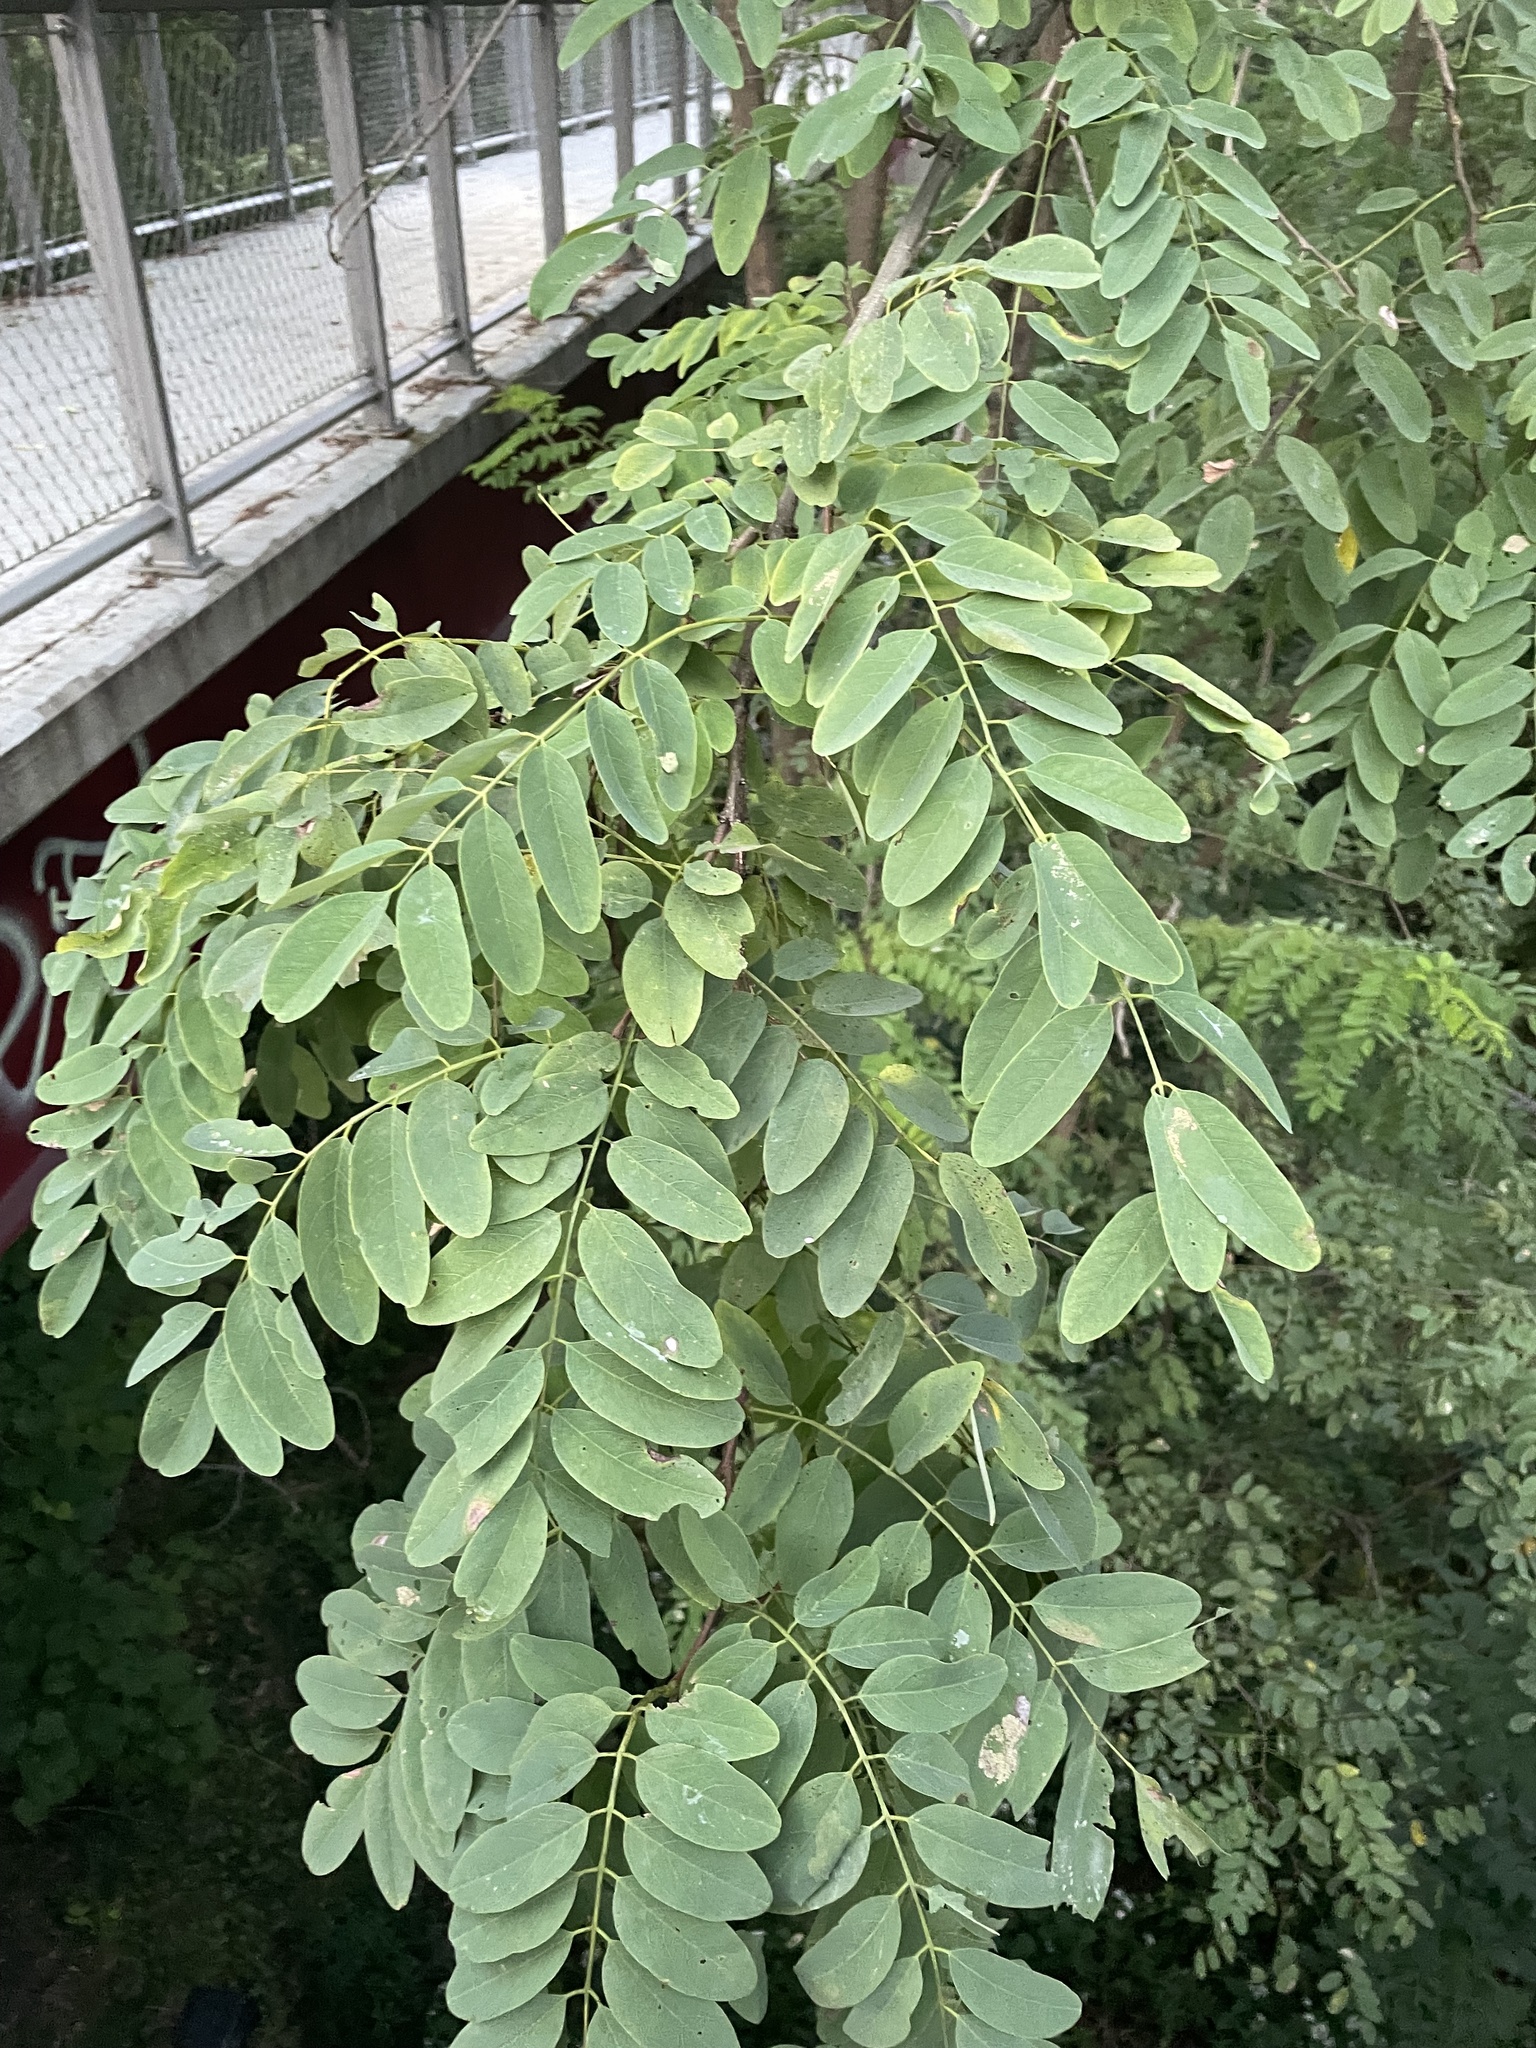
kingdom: Plantae
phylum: Tracheophyta
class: Magnoliopsida
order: Fabales
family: Fabaceae
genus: Robinia
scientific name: Robinia pseudoacacia
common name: Black locust
